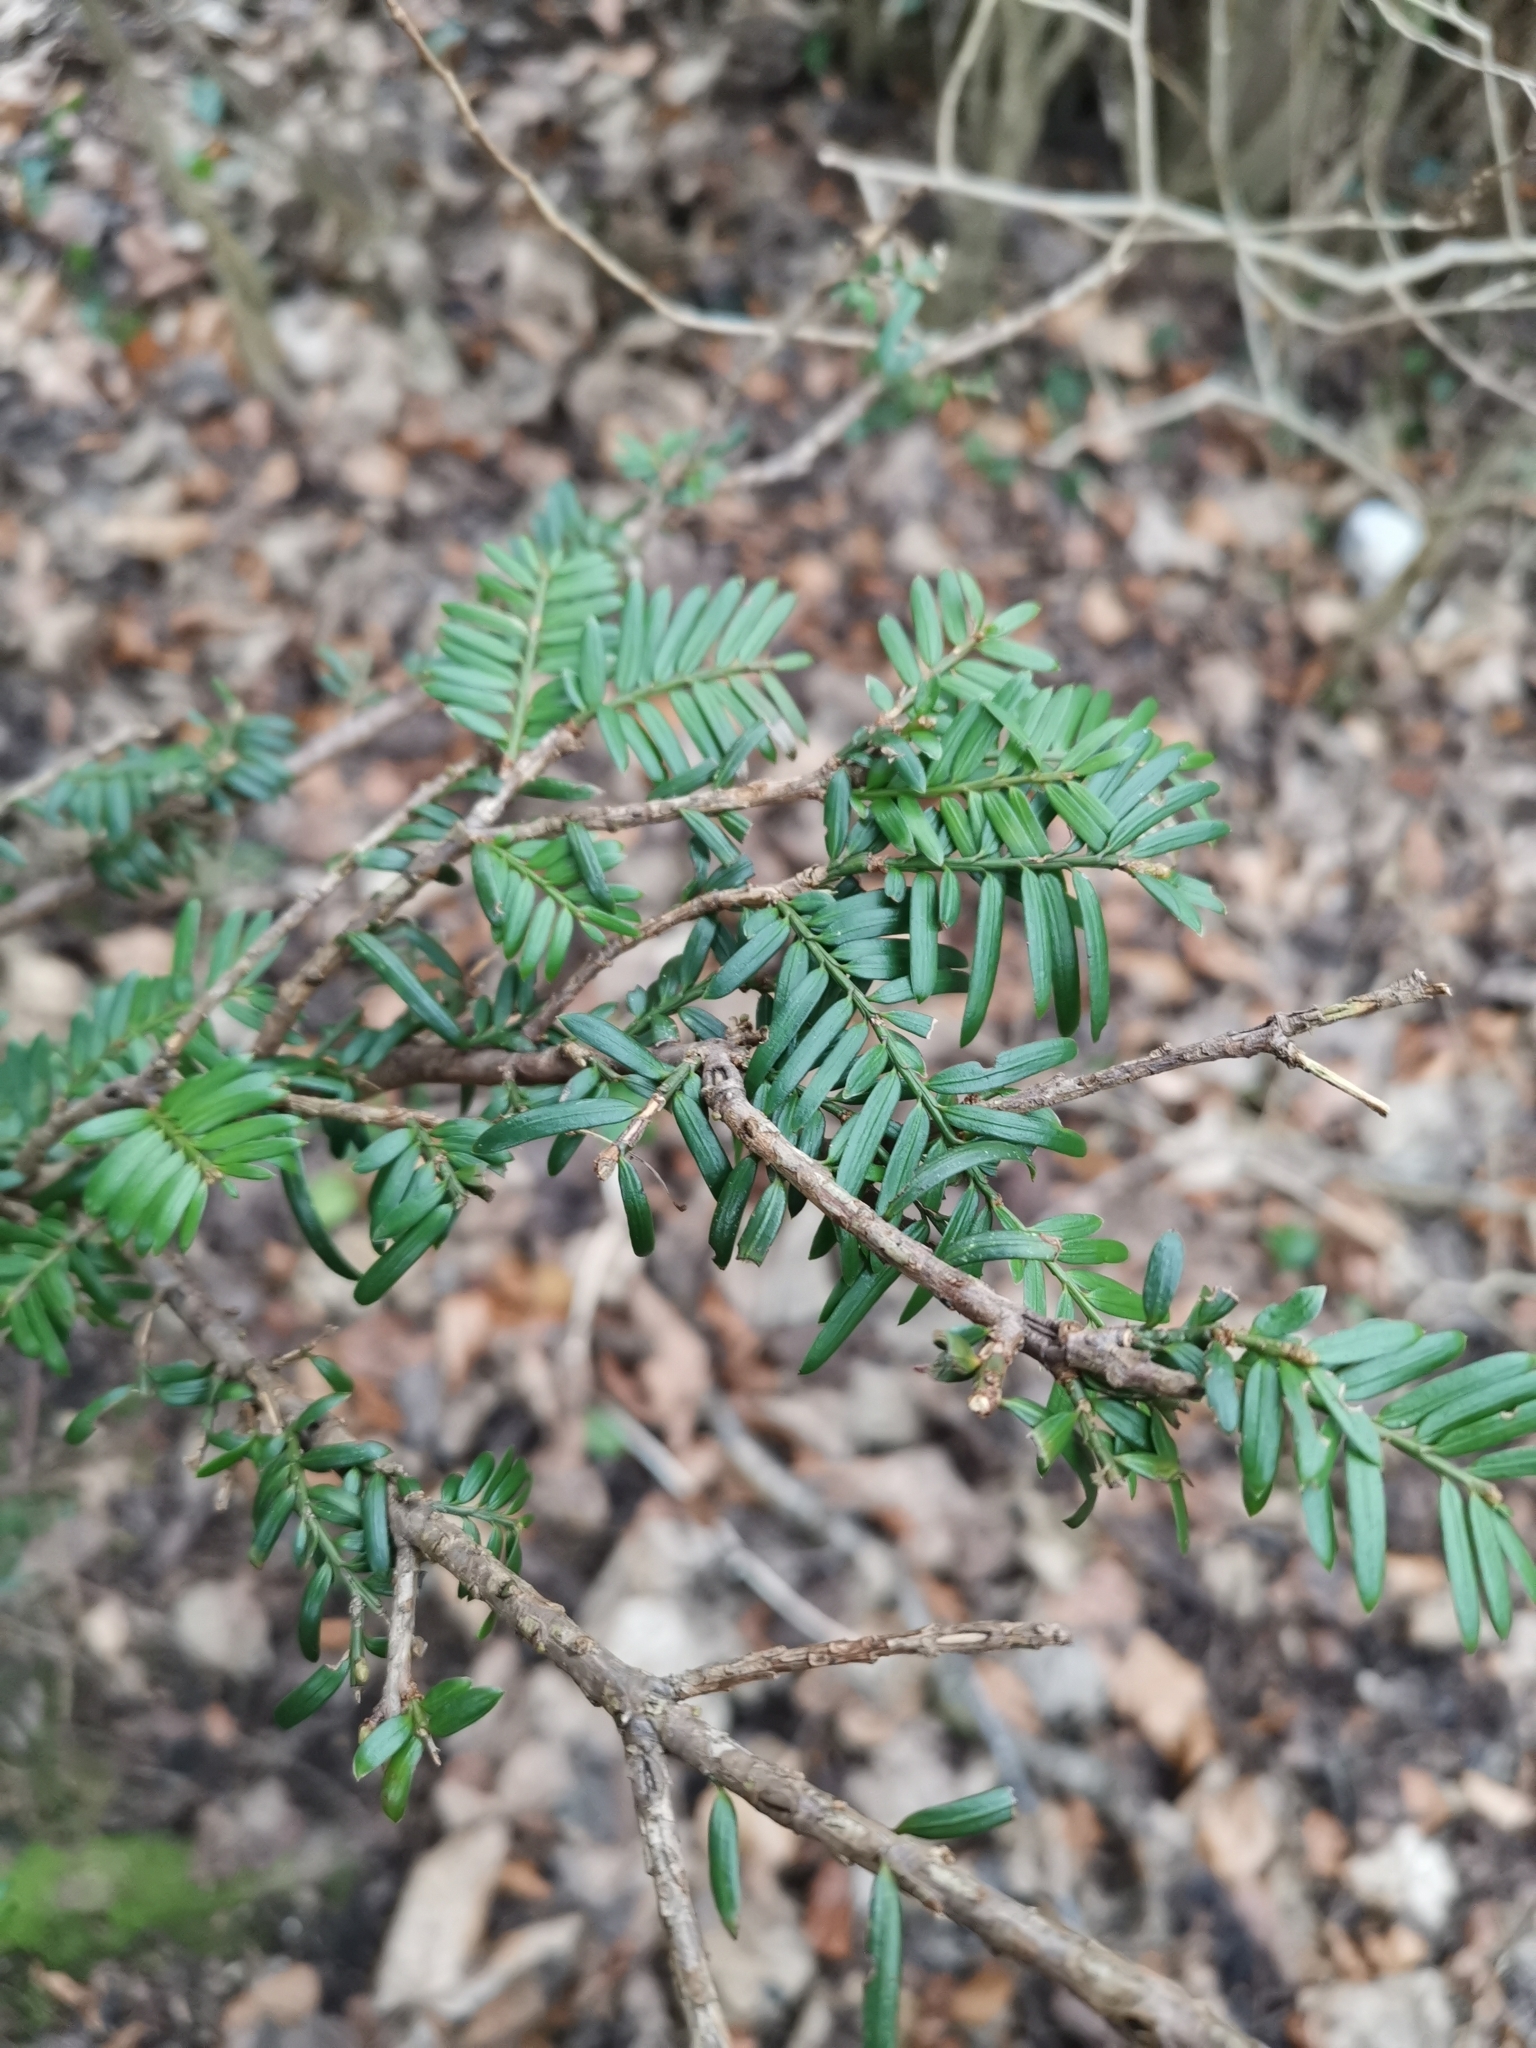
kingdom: Plantae
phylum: Tracheophyta
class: Pinopsida
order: Pinales
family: Taxaceae
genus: Taxus
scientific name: Taxus baccata
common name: Yew
